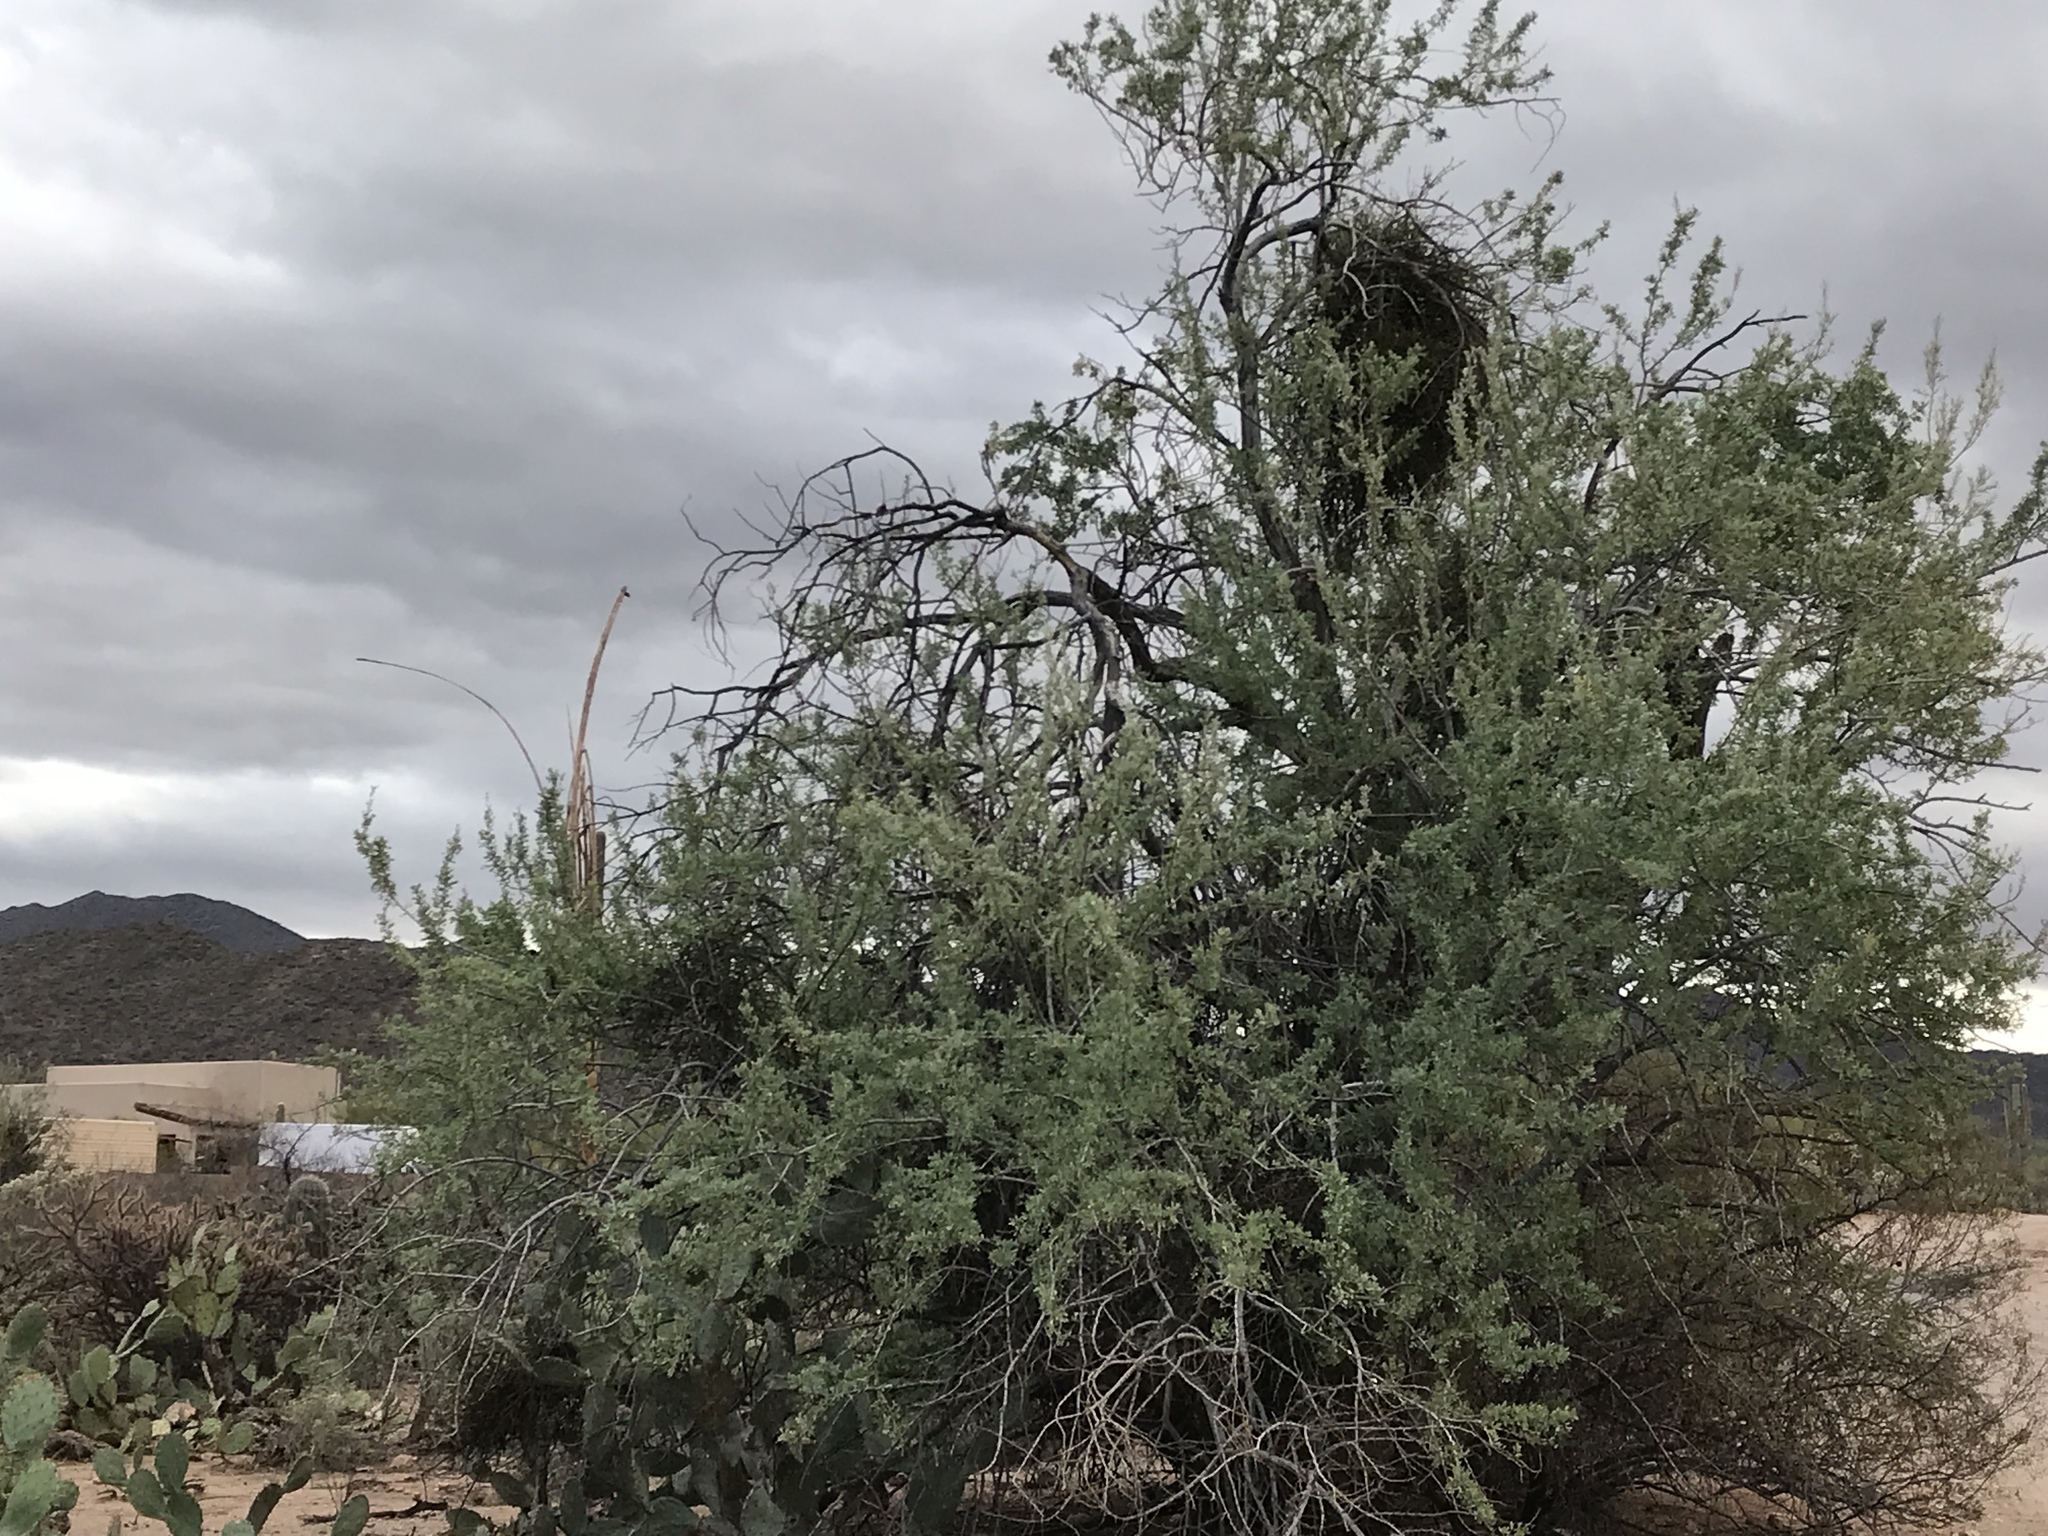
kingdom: Plantae
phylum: Tracheophyta
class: Magnoliopsida
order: Fabales
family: Fabaceae
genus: Olneya
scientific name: Olneya tesota
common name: Desert ironwood
